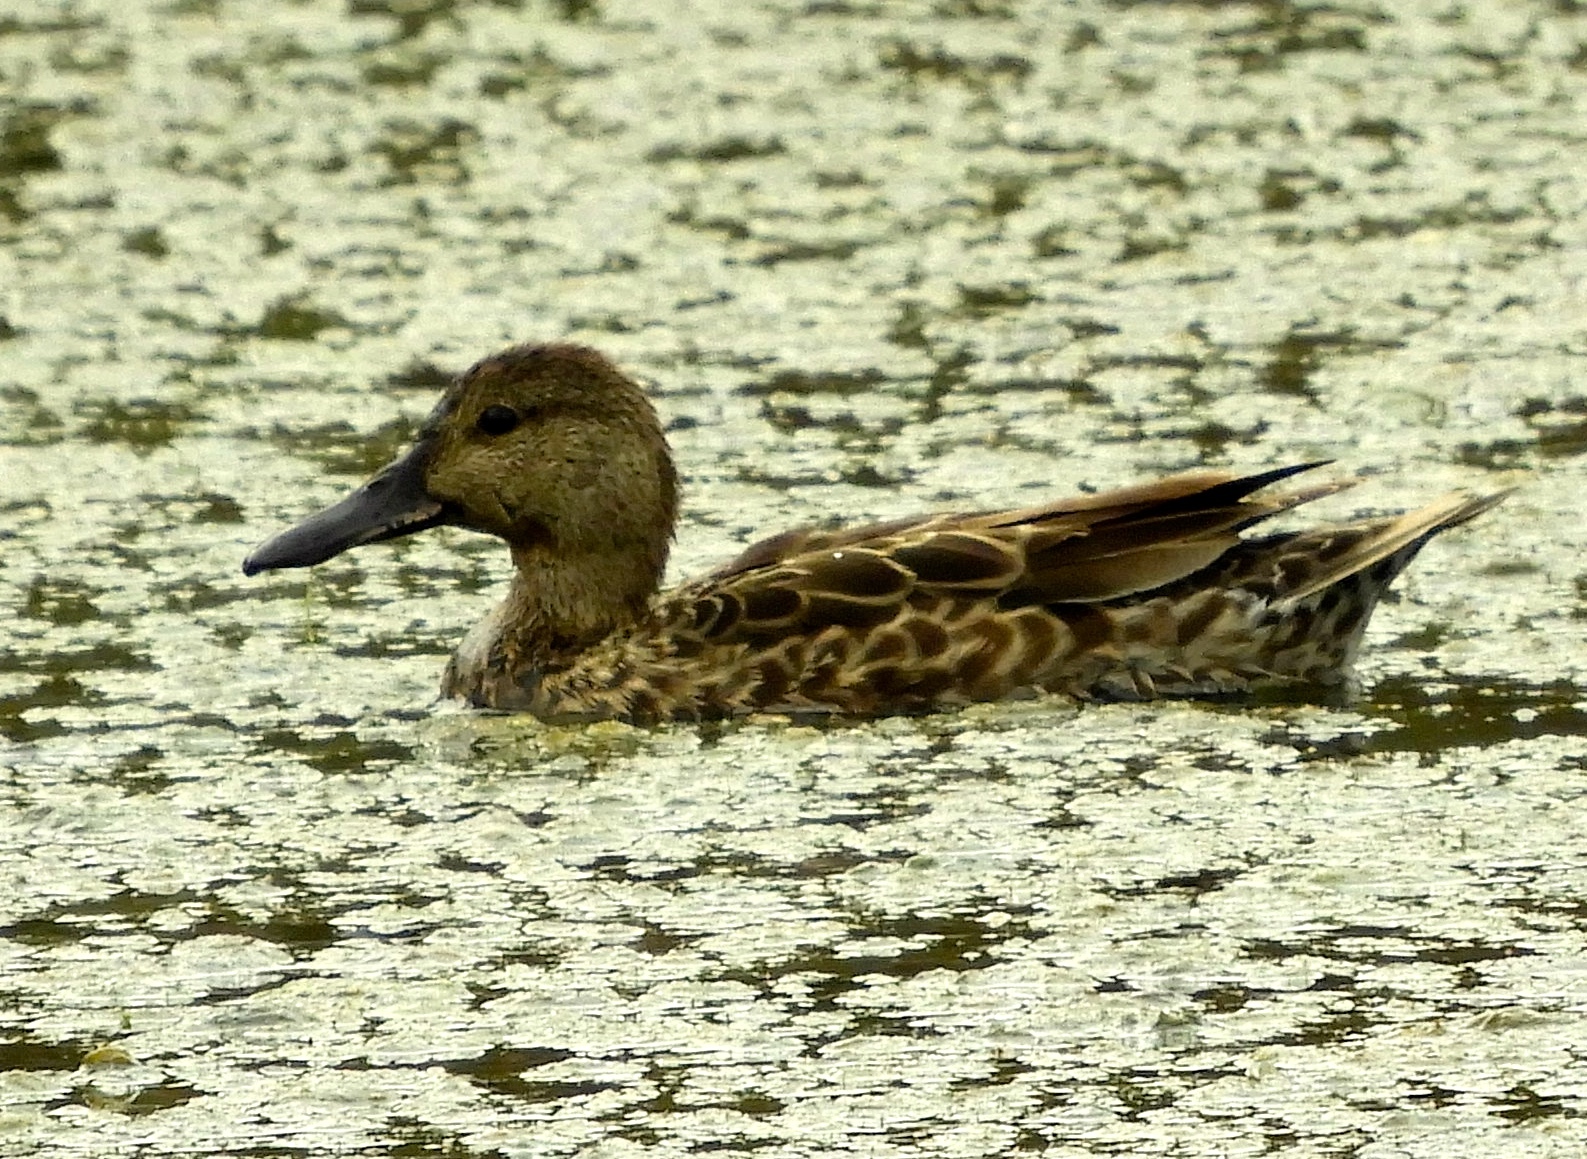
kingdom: Animalia
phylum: Chordata
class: Aves
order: Anseriformes
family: Anatidae
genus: Spatula
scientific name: Spatula cyanoptera
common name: Cinnamon teal
